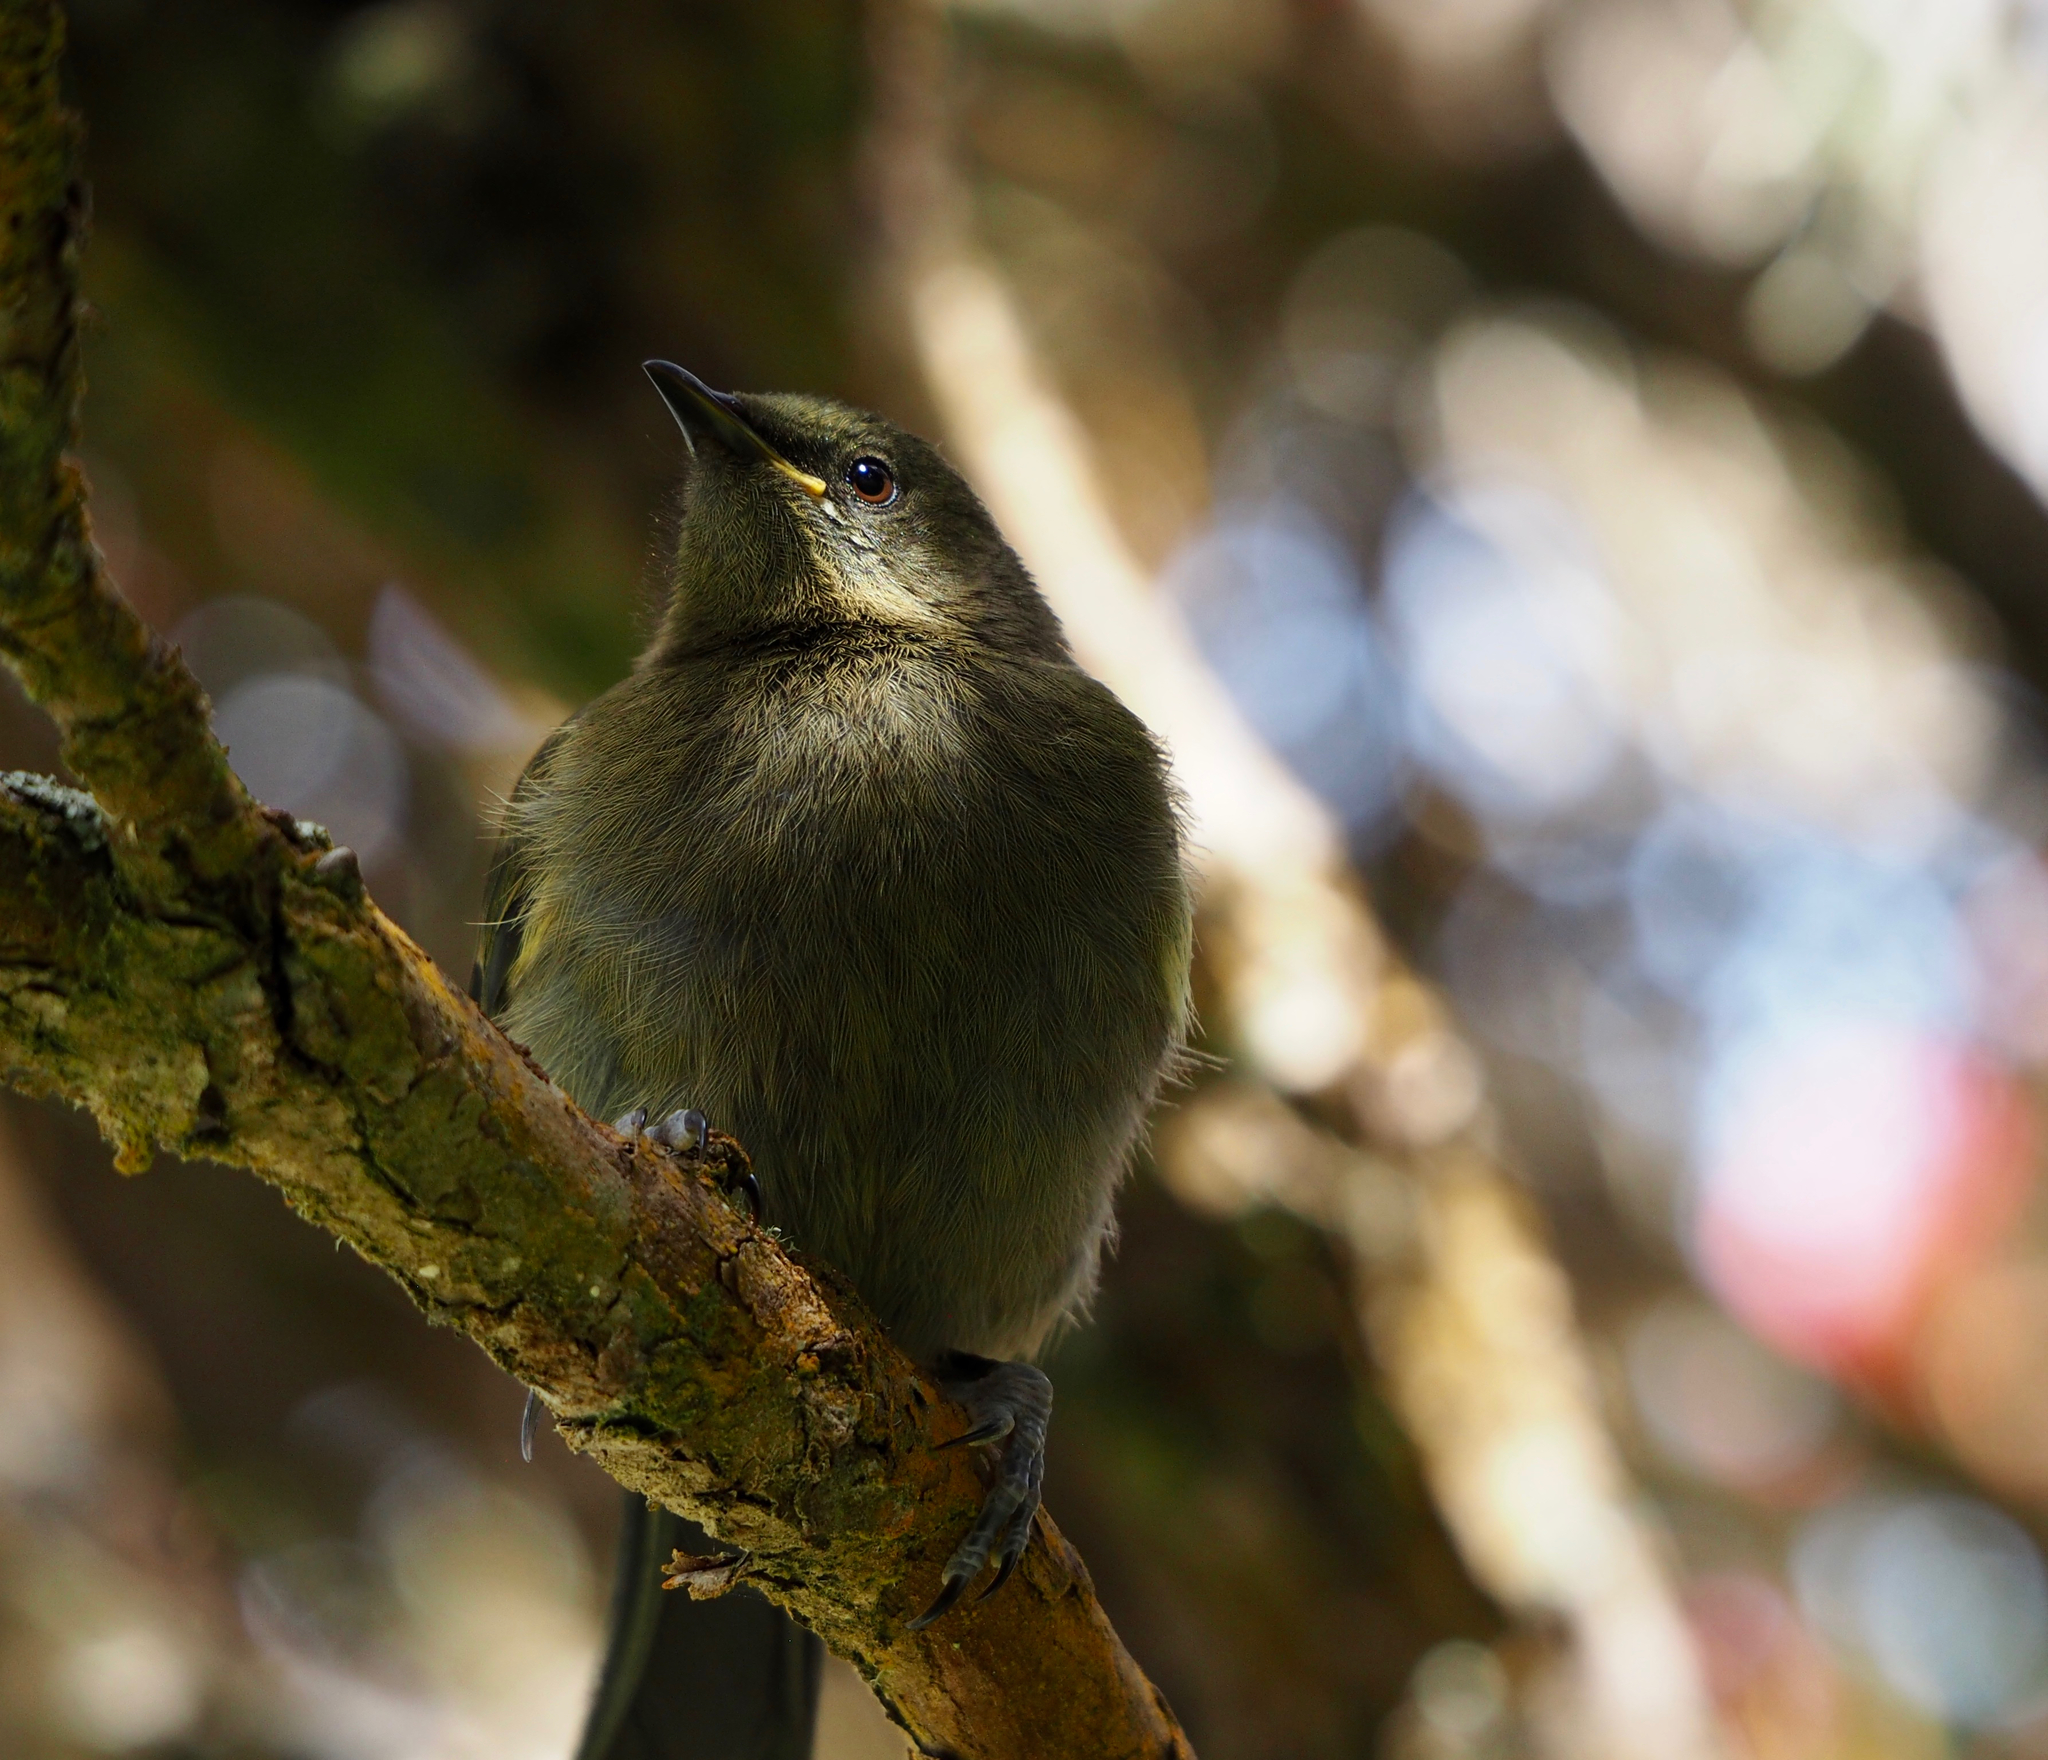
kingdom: Animalia
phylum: Chordata
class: Aves
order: Passeriformes
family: Meliphagidae
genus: Anthornis
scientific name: Anthornis melanura
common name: New zealand bellbird
